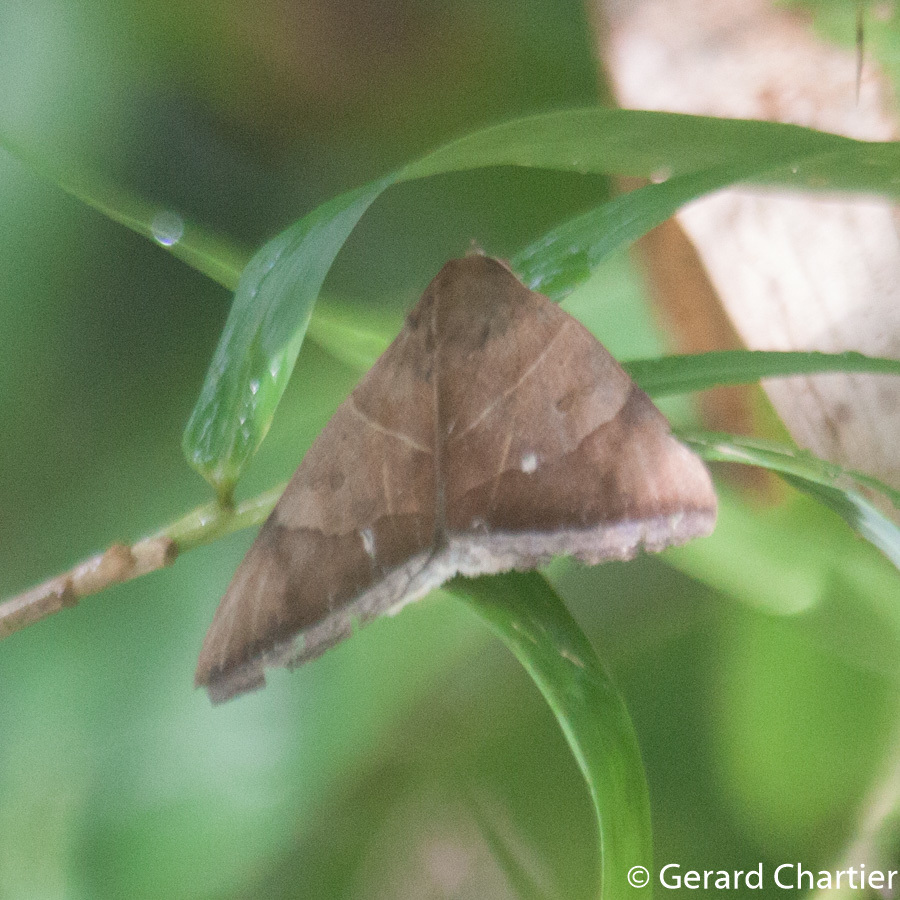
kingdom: Animalia
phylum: Arthropoda
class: Insecta
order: Lepidoptera
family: Erebidae
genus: Artena
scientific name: Artena dotata
